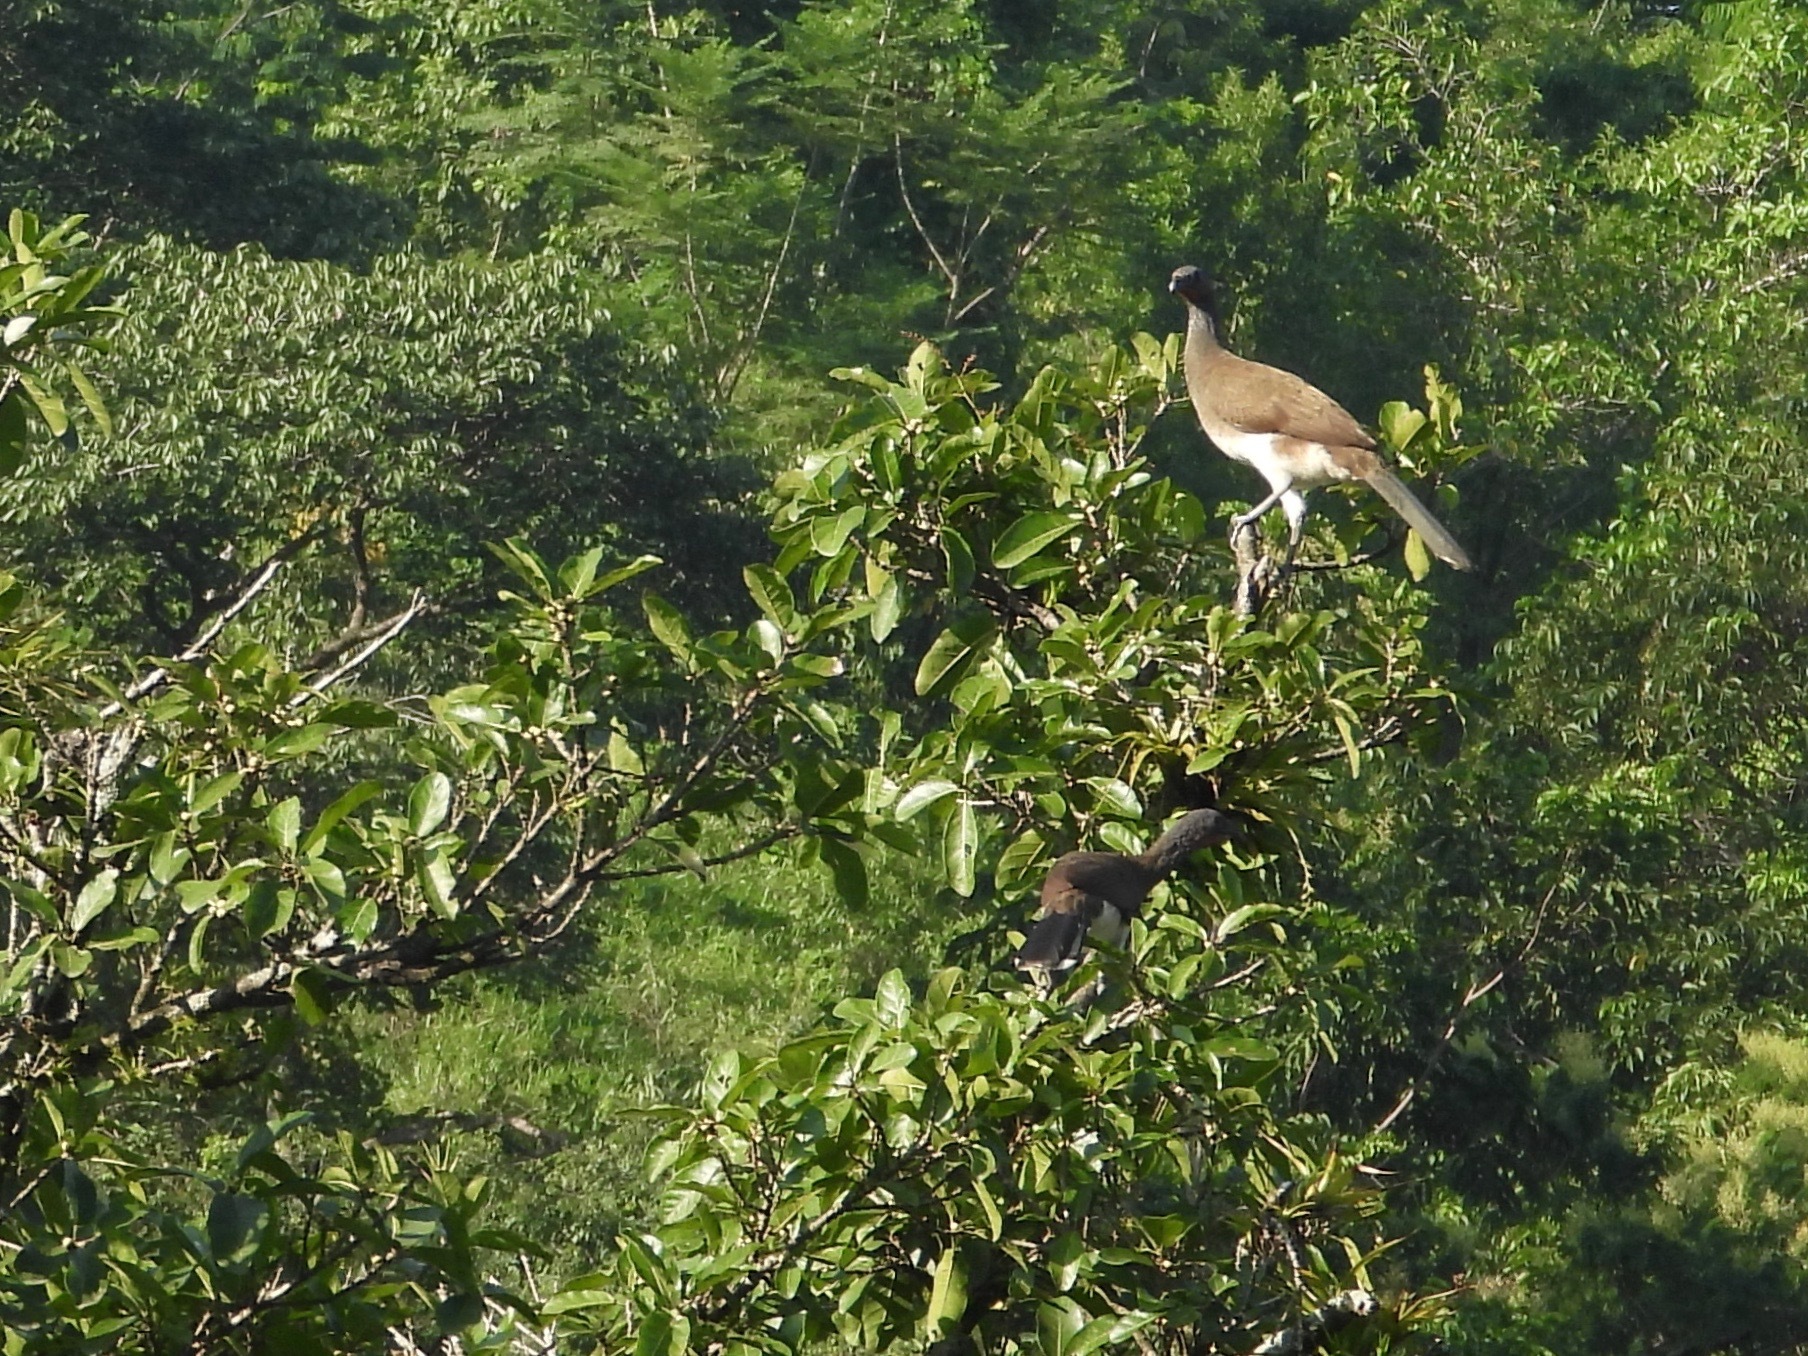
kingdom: Animalia
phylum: Chordata
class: Aves
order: Galliformes
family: Cracidae
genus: Ortalis
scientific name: Ortalis leucogastra
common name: White-bellied chachalaca
